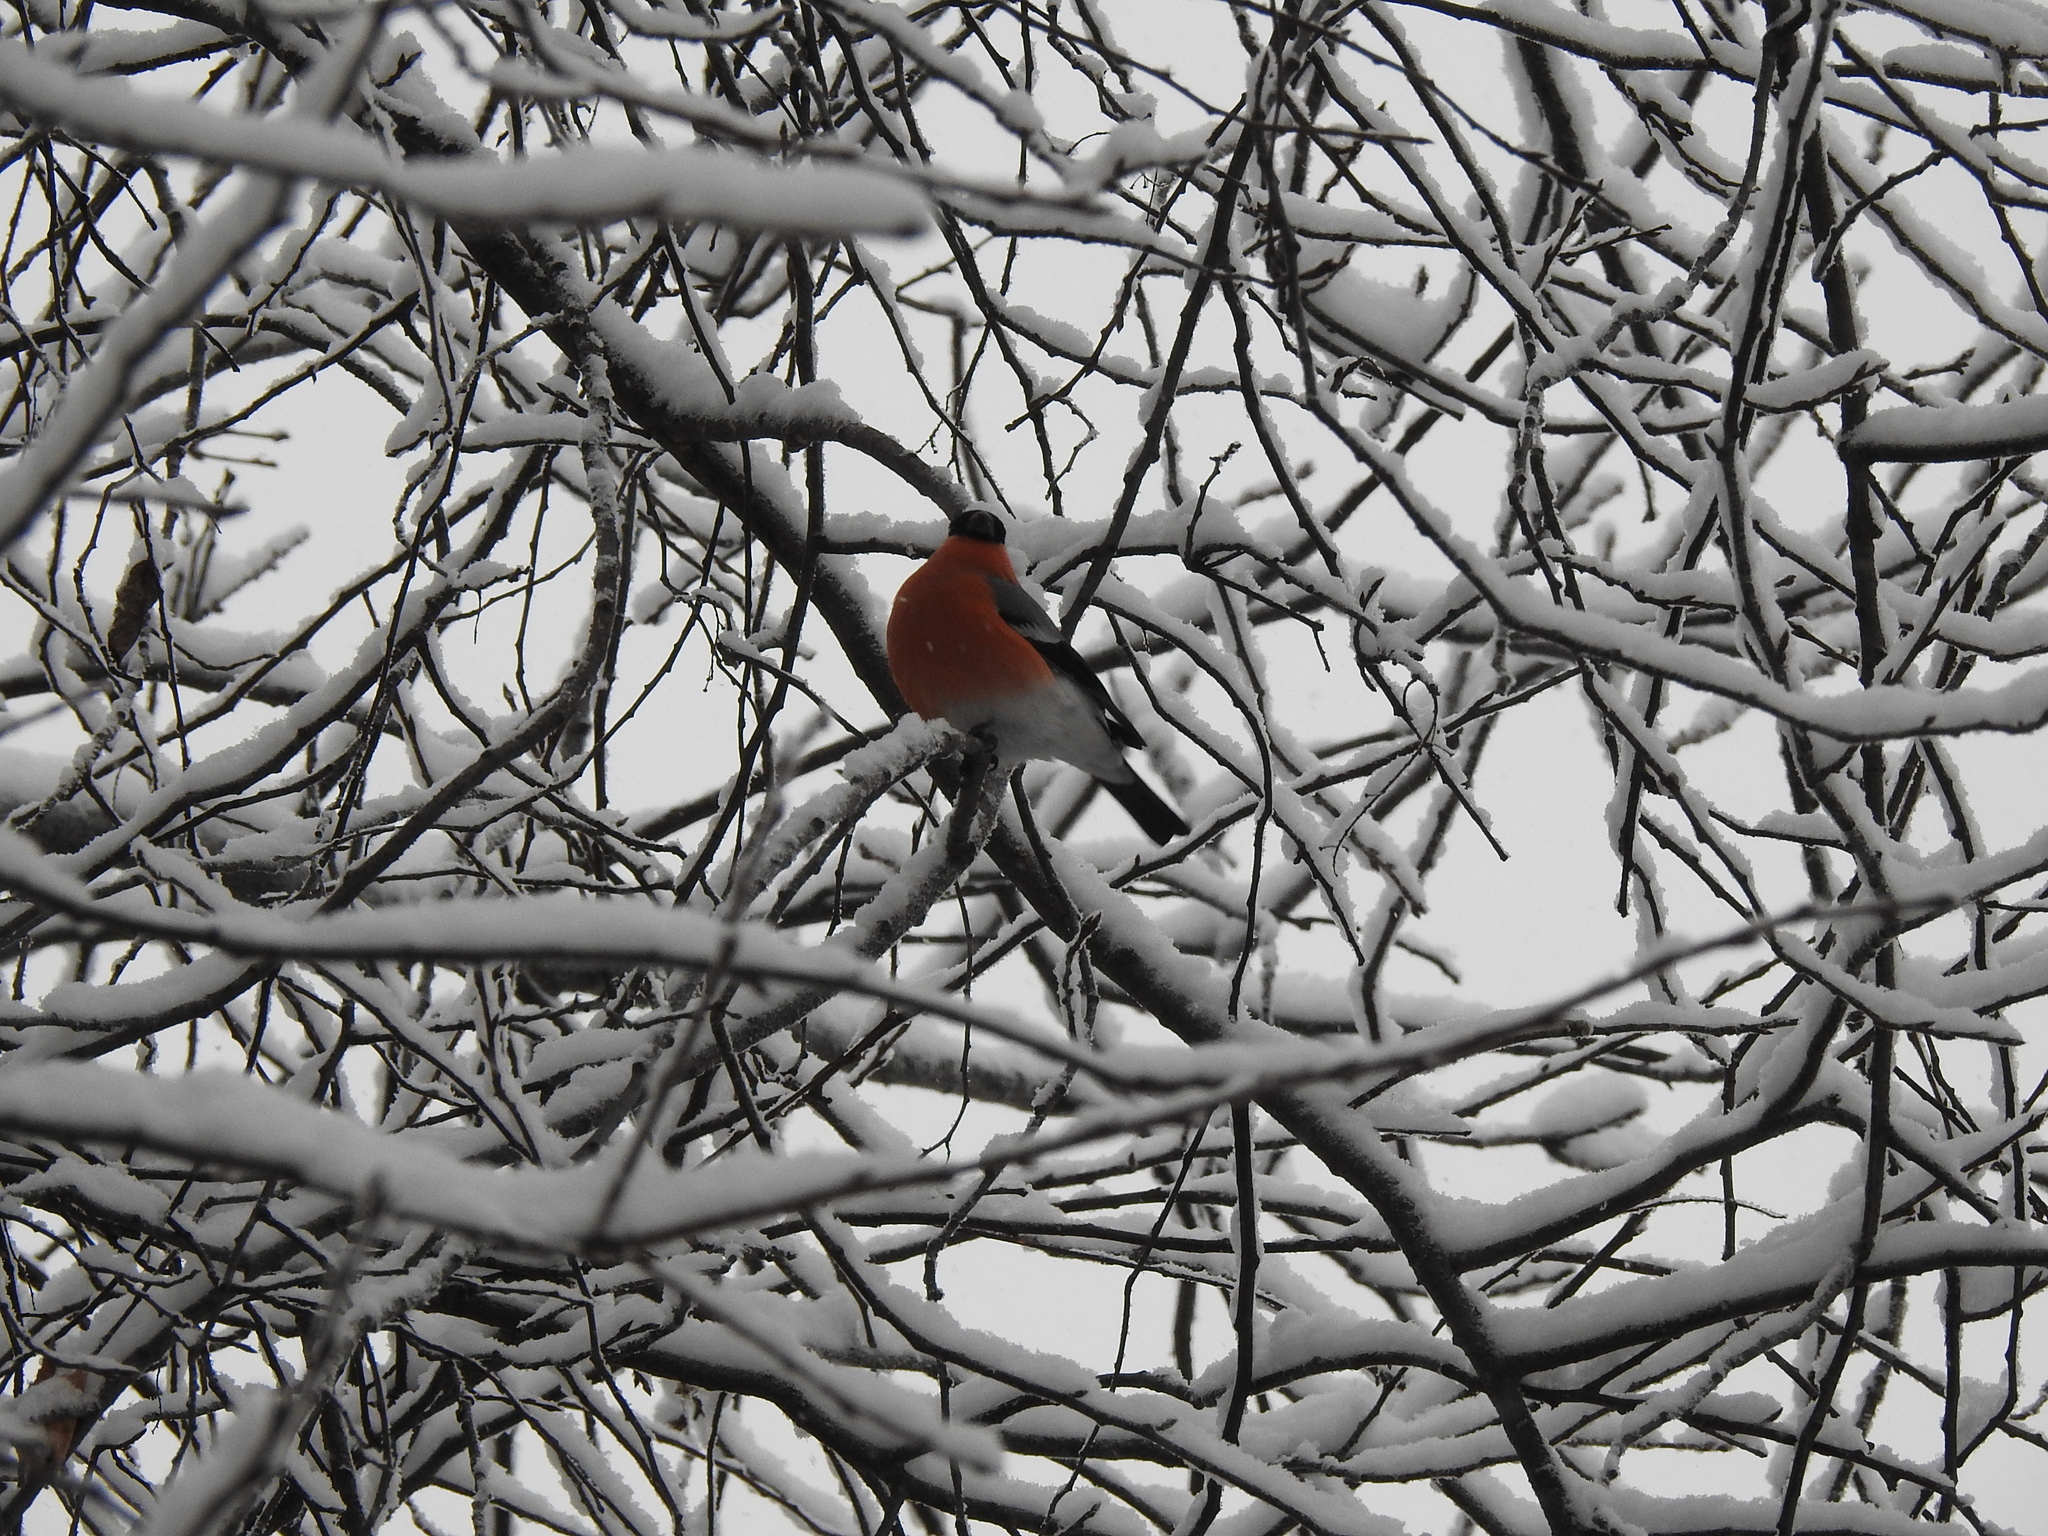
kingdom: Animalia
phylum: Chordata
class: Aves
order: Passeriformes
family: Fringillidae
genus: Pyrrhula
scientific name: Pyrrhula pyrrhula
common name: Eurasian bullfinch
